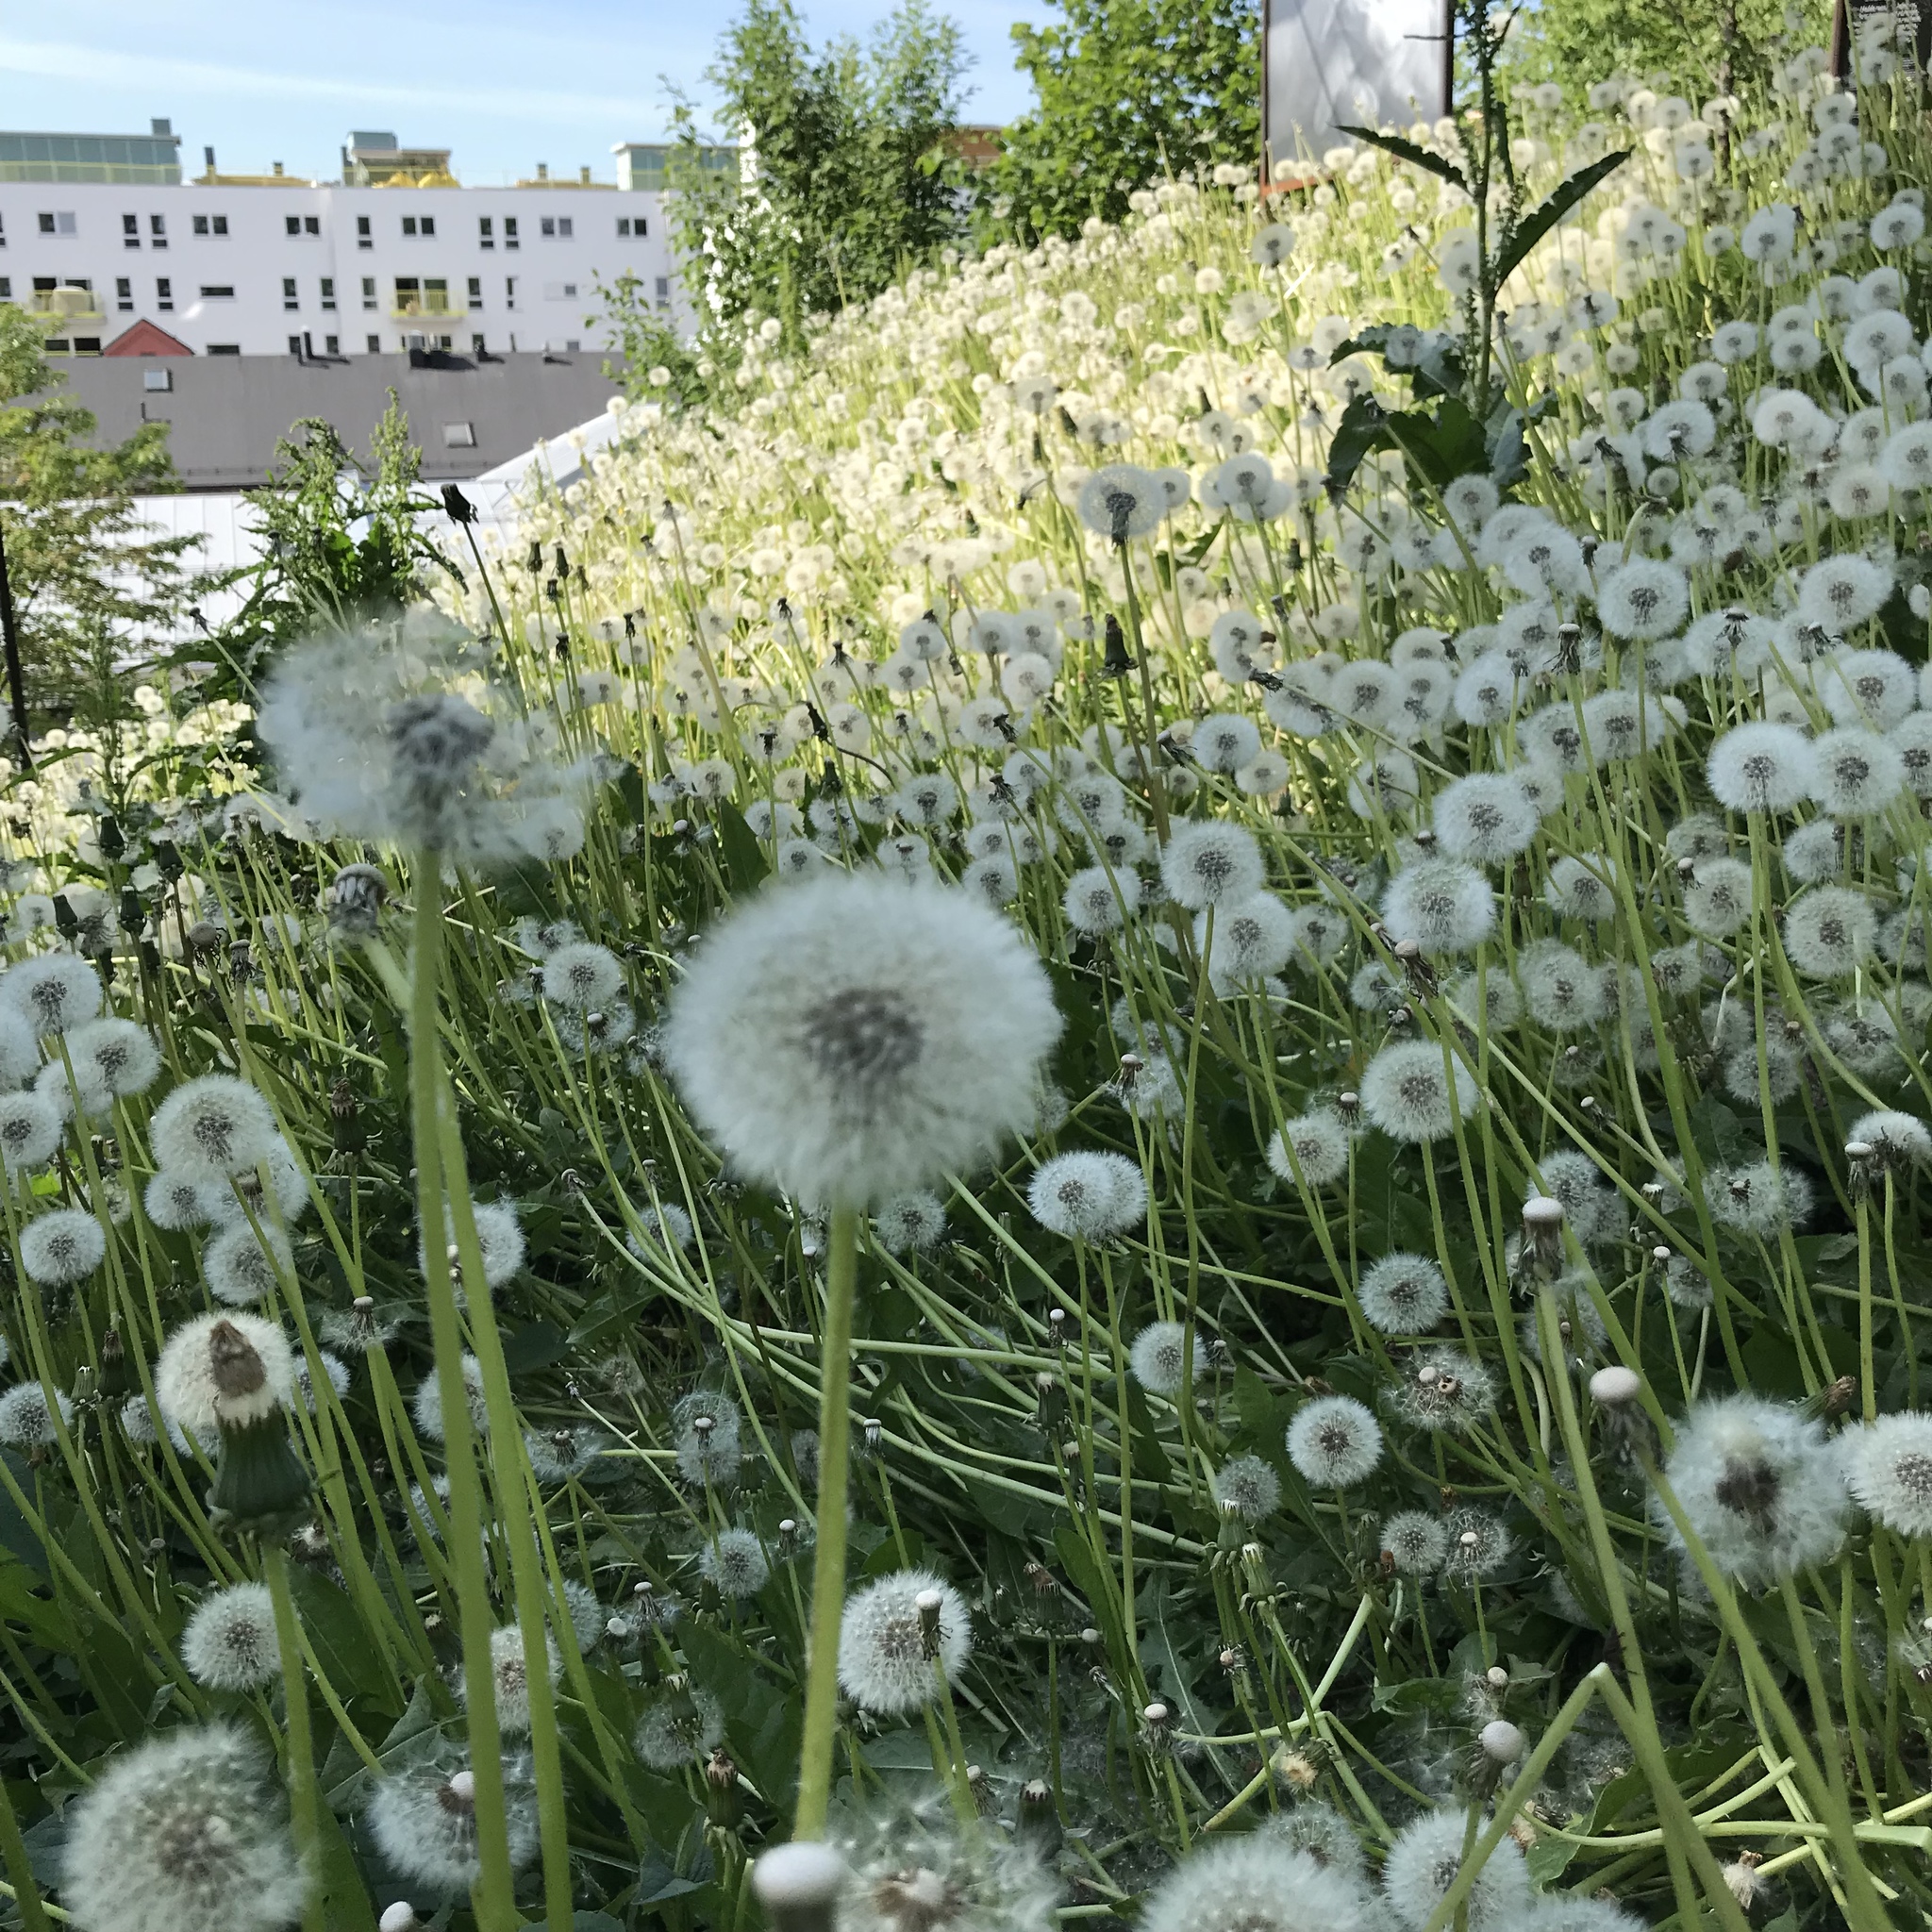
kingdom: Plantae
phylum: Tracheophyta
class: Magnoliopsida
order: Asterales
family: Asteraceae
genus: Taraxacum
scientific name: Taraxacum officinale
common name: Common dandelion
